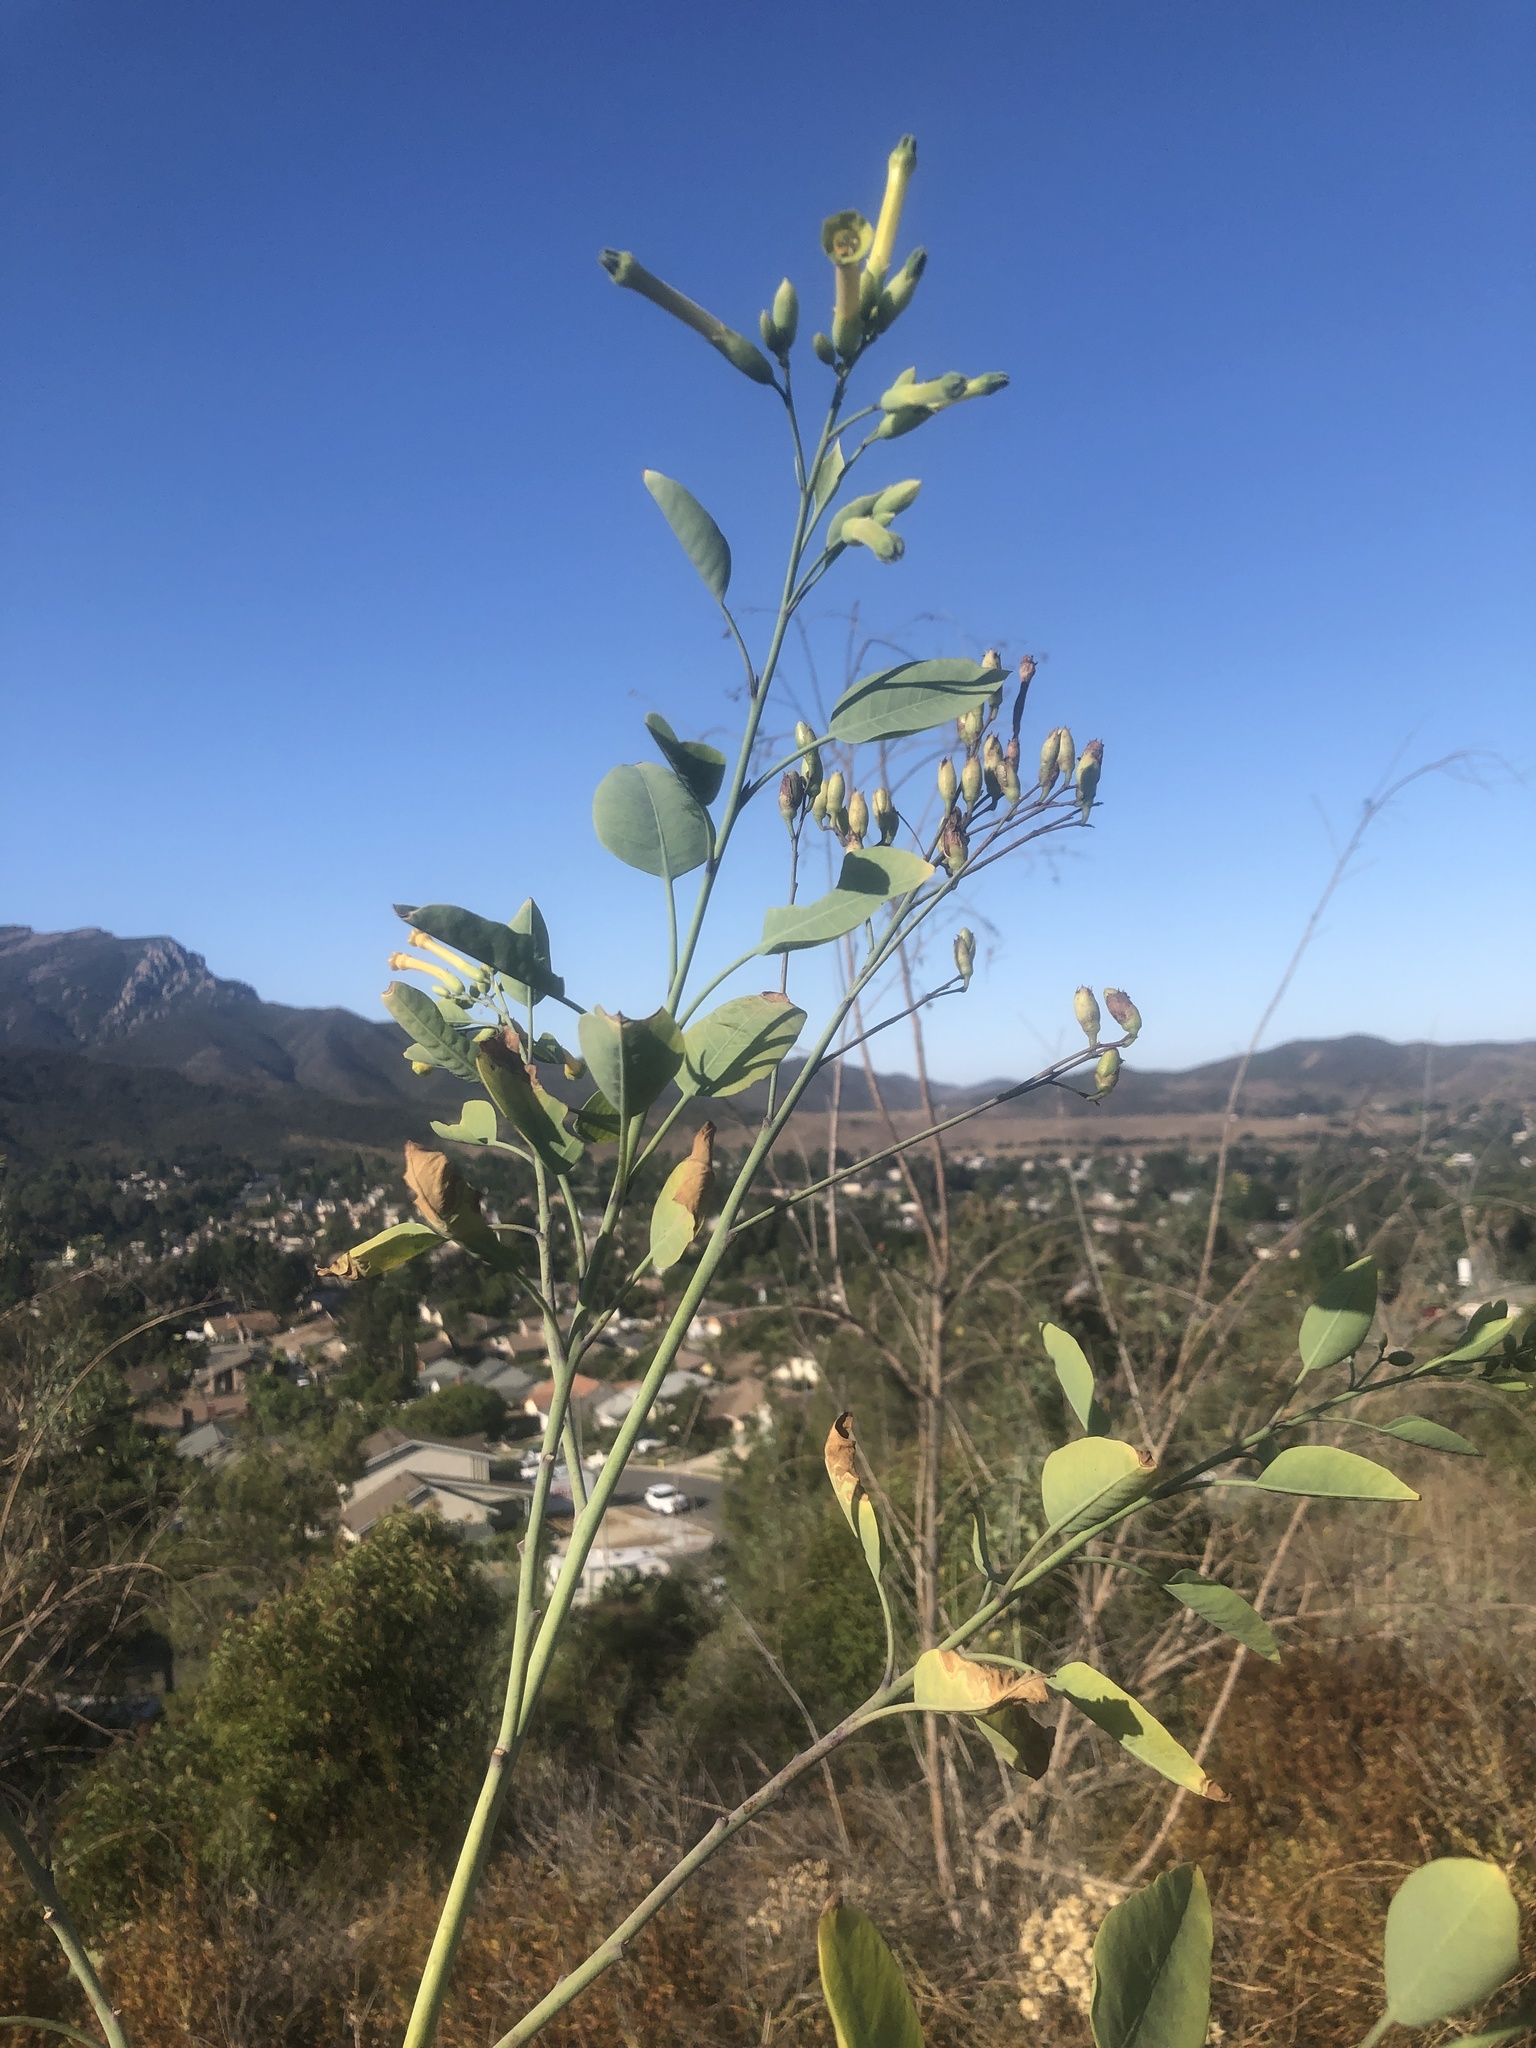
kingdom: Plantae
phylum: Tracheophyta
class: Magnoliopsida
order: Solanales
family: Solanaceae
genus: Nicotiana
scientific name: Nicotiana glauca
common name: Tree tobacco
